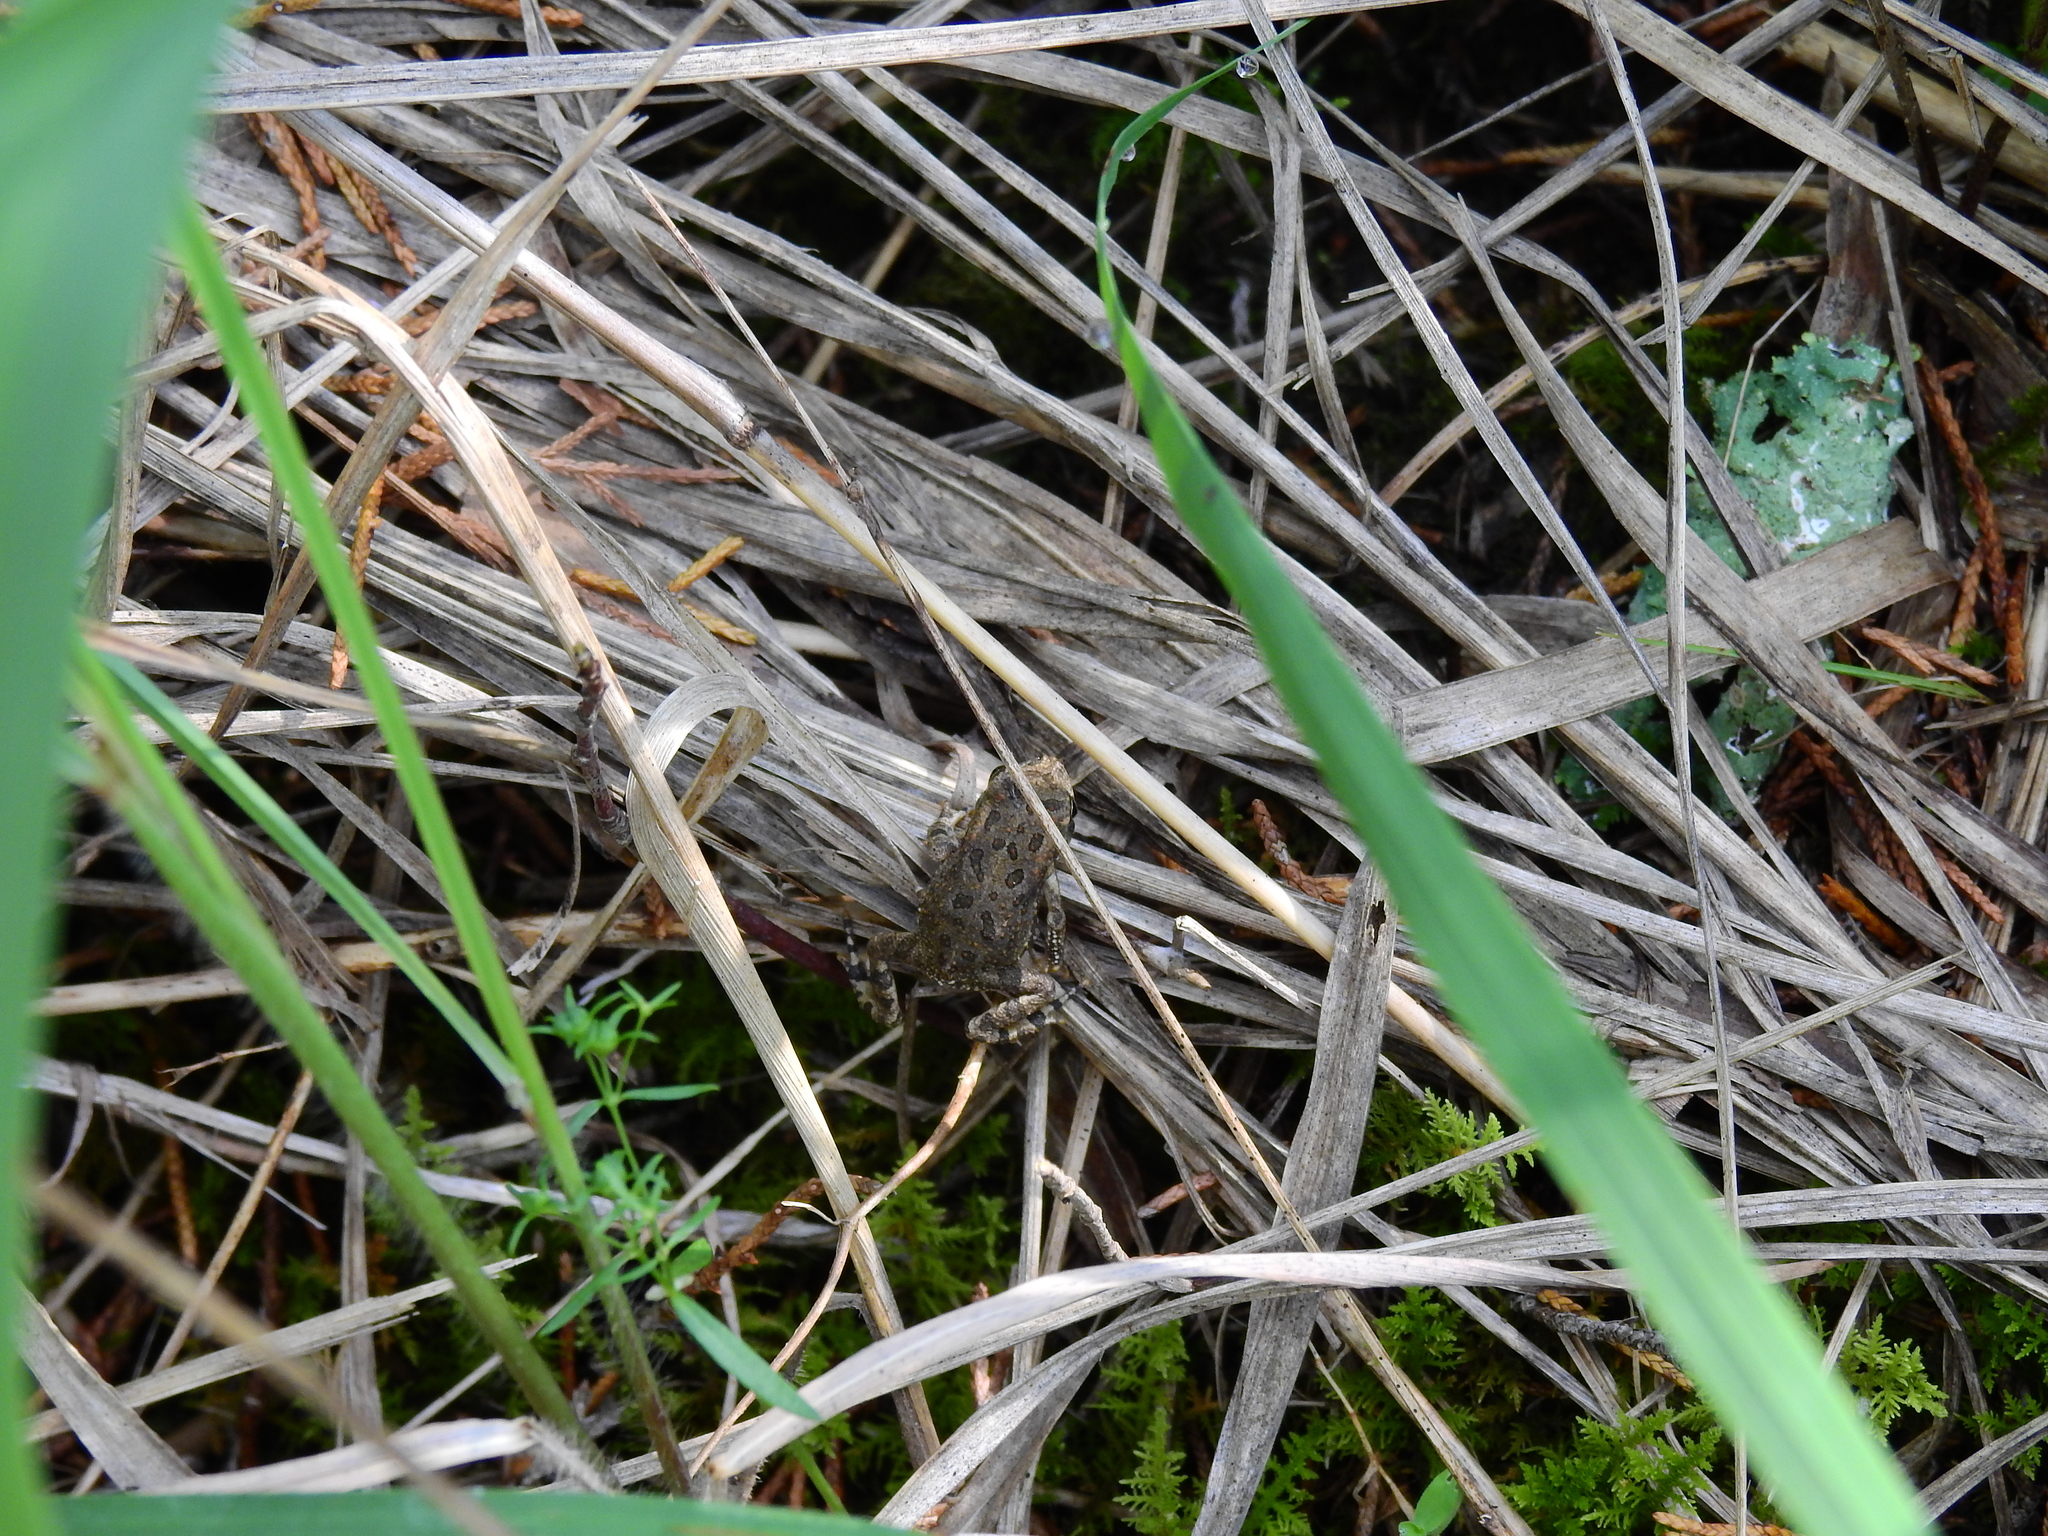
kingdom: Animalia
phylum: Chordata
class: Amphibia
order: Anura
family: Bufonidae
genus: Anaxyrus
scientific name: Anaxyrus americanus
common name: American toad
